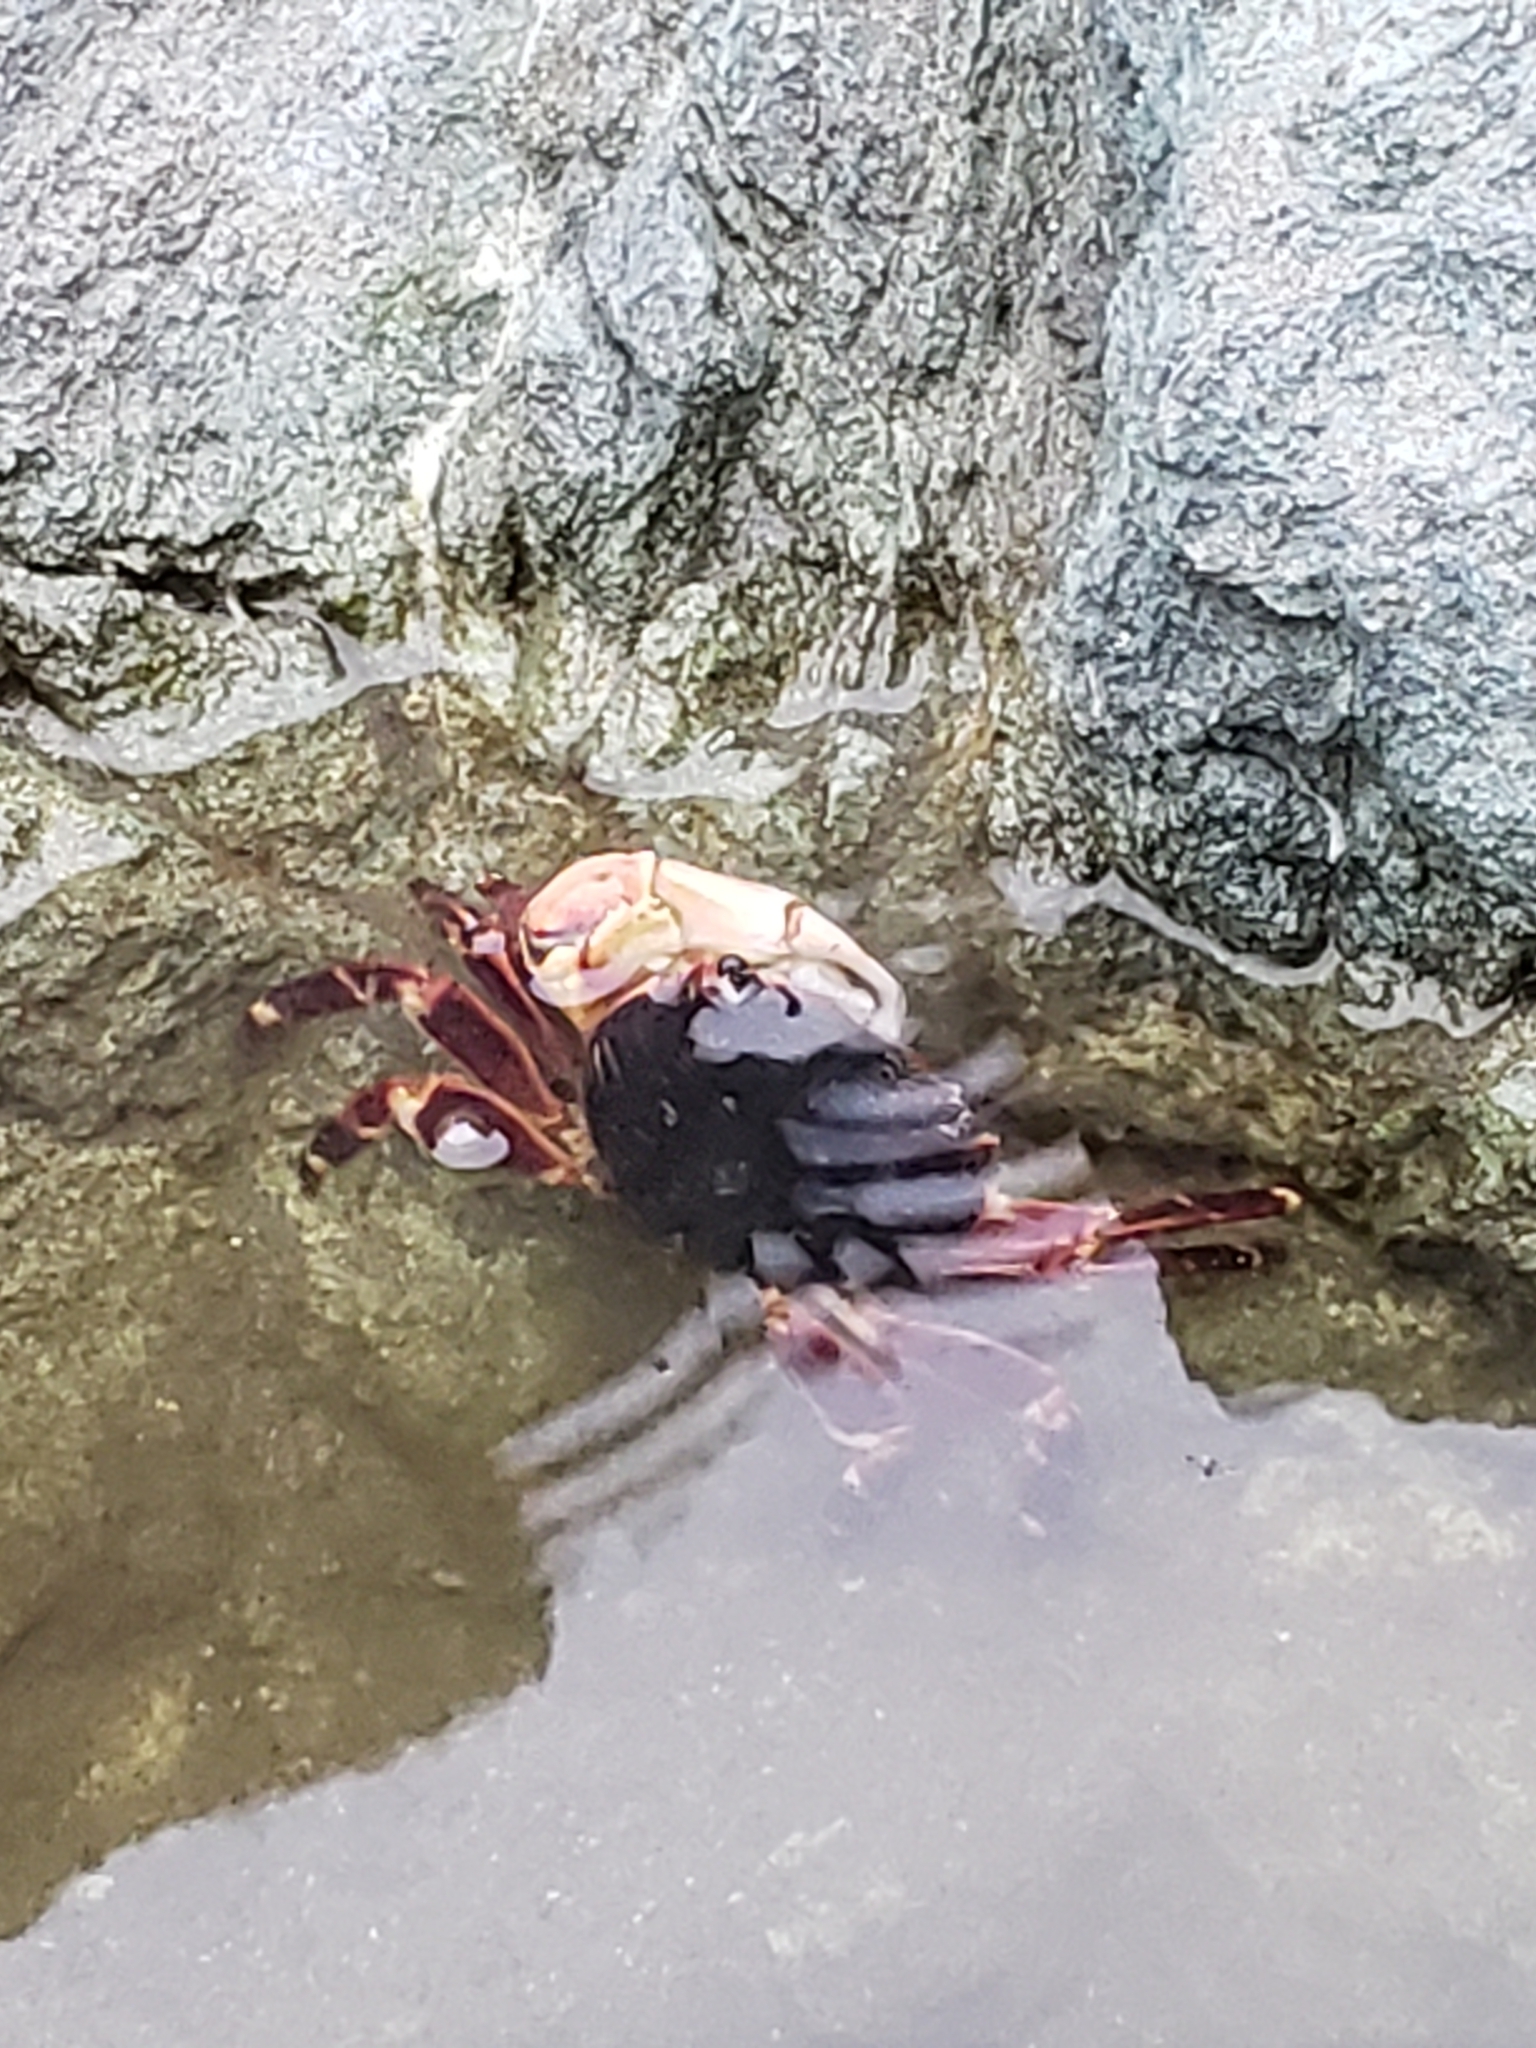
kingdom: Animalia
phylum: Arthropoda
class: Malacostraca
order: Decapoda
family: Grapsidae
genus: Pachygrapsus
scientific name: Pachygrapsus crassipes
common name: Striped shore crab
